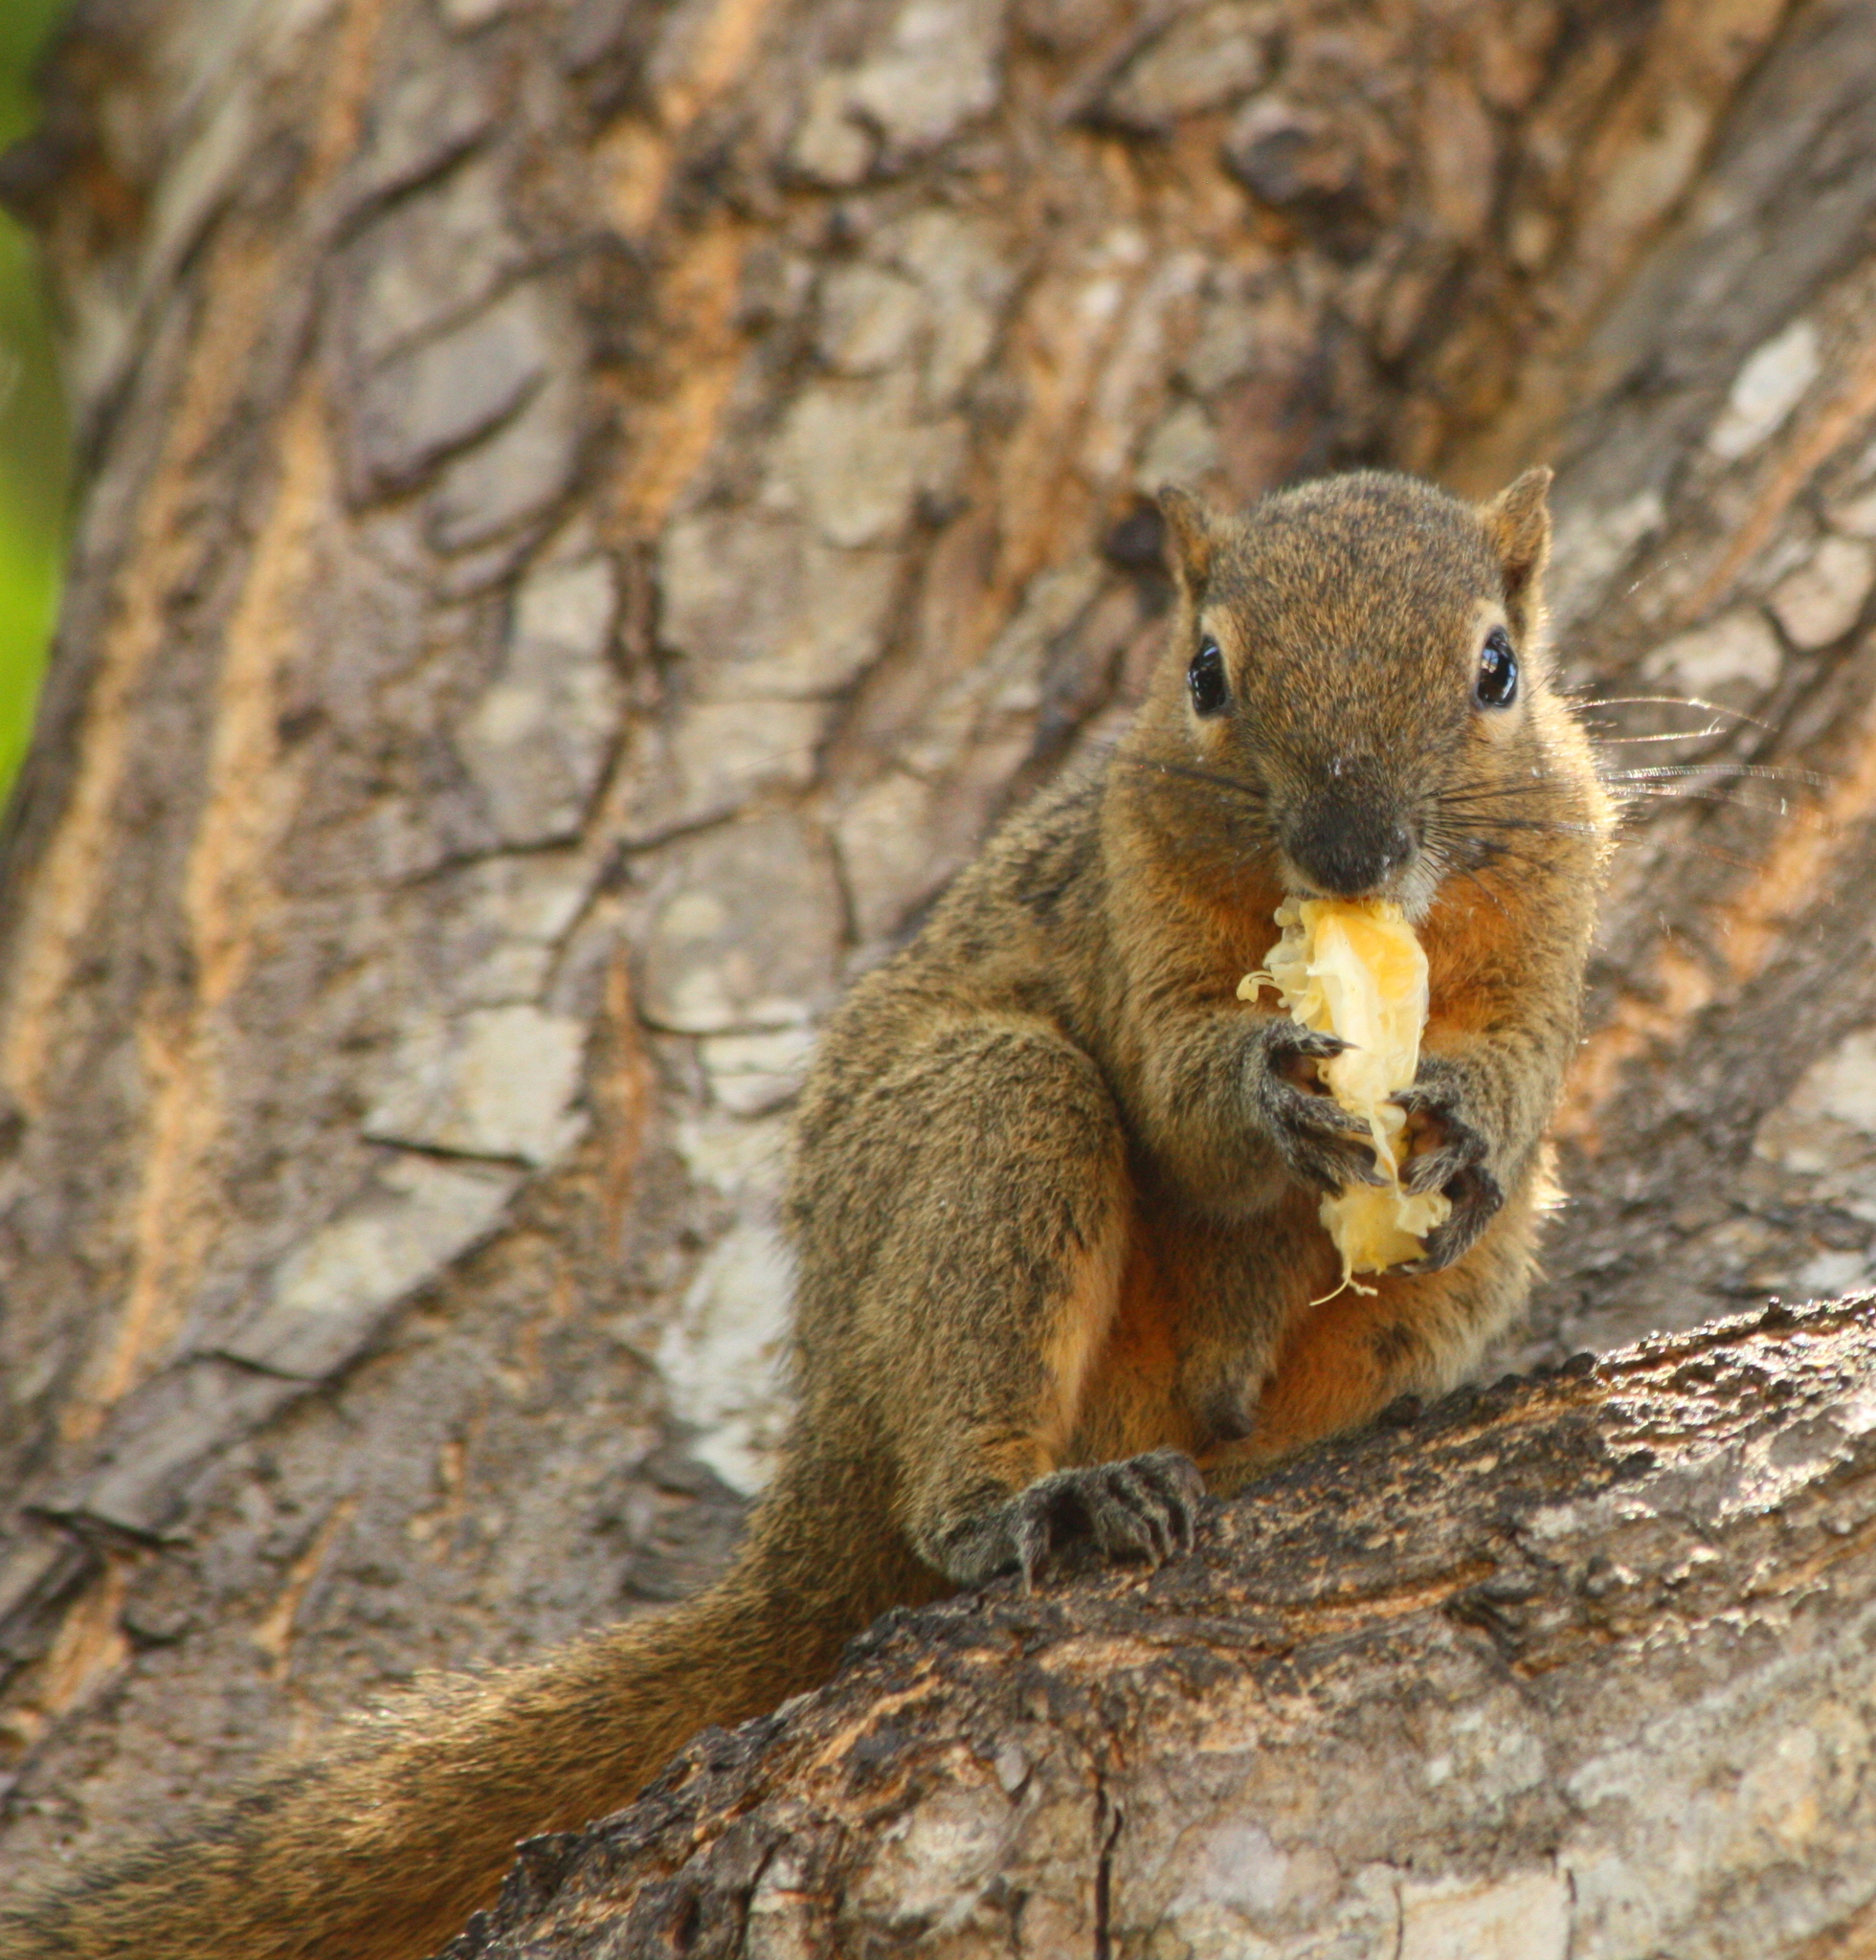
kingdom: Animalia
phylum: Chordata
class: Mammalia
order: Rodentia
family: Sciuridae
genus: Callosciurus
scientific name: Callosciurus notatus
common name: Plantain squirrel
